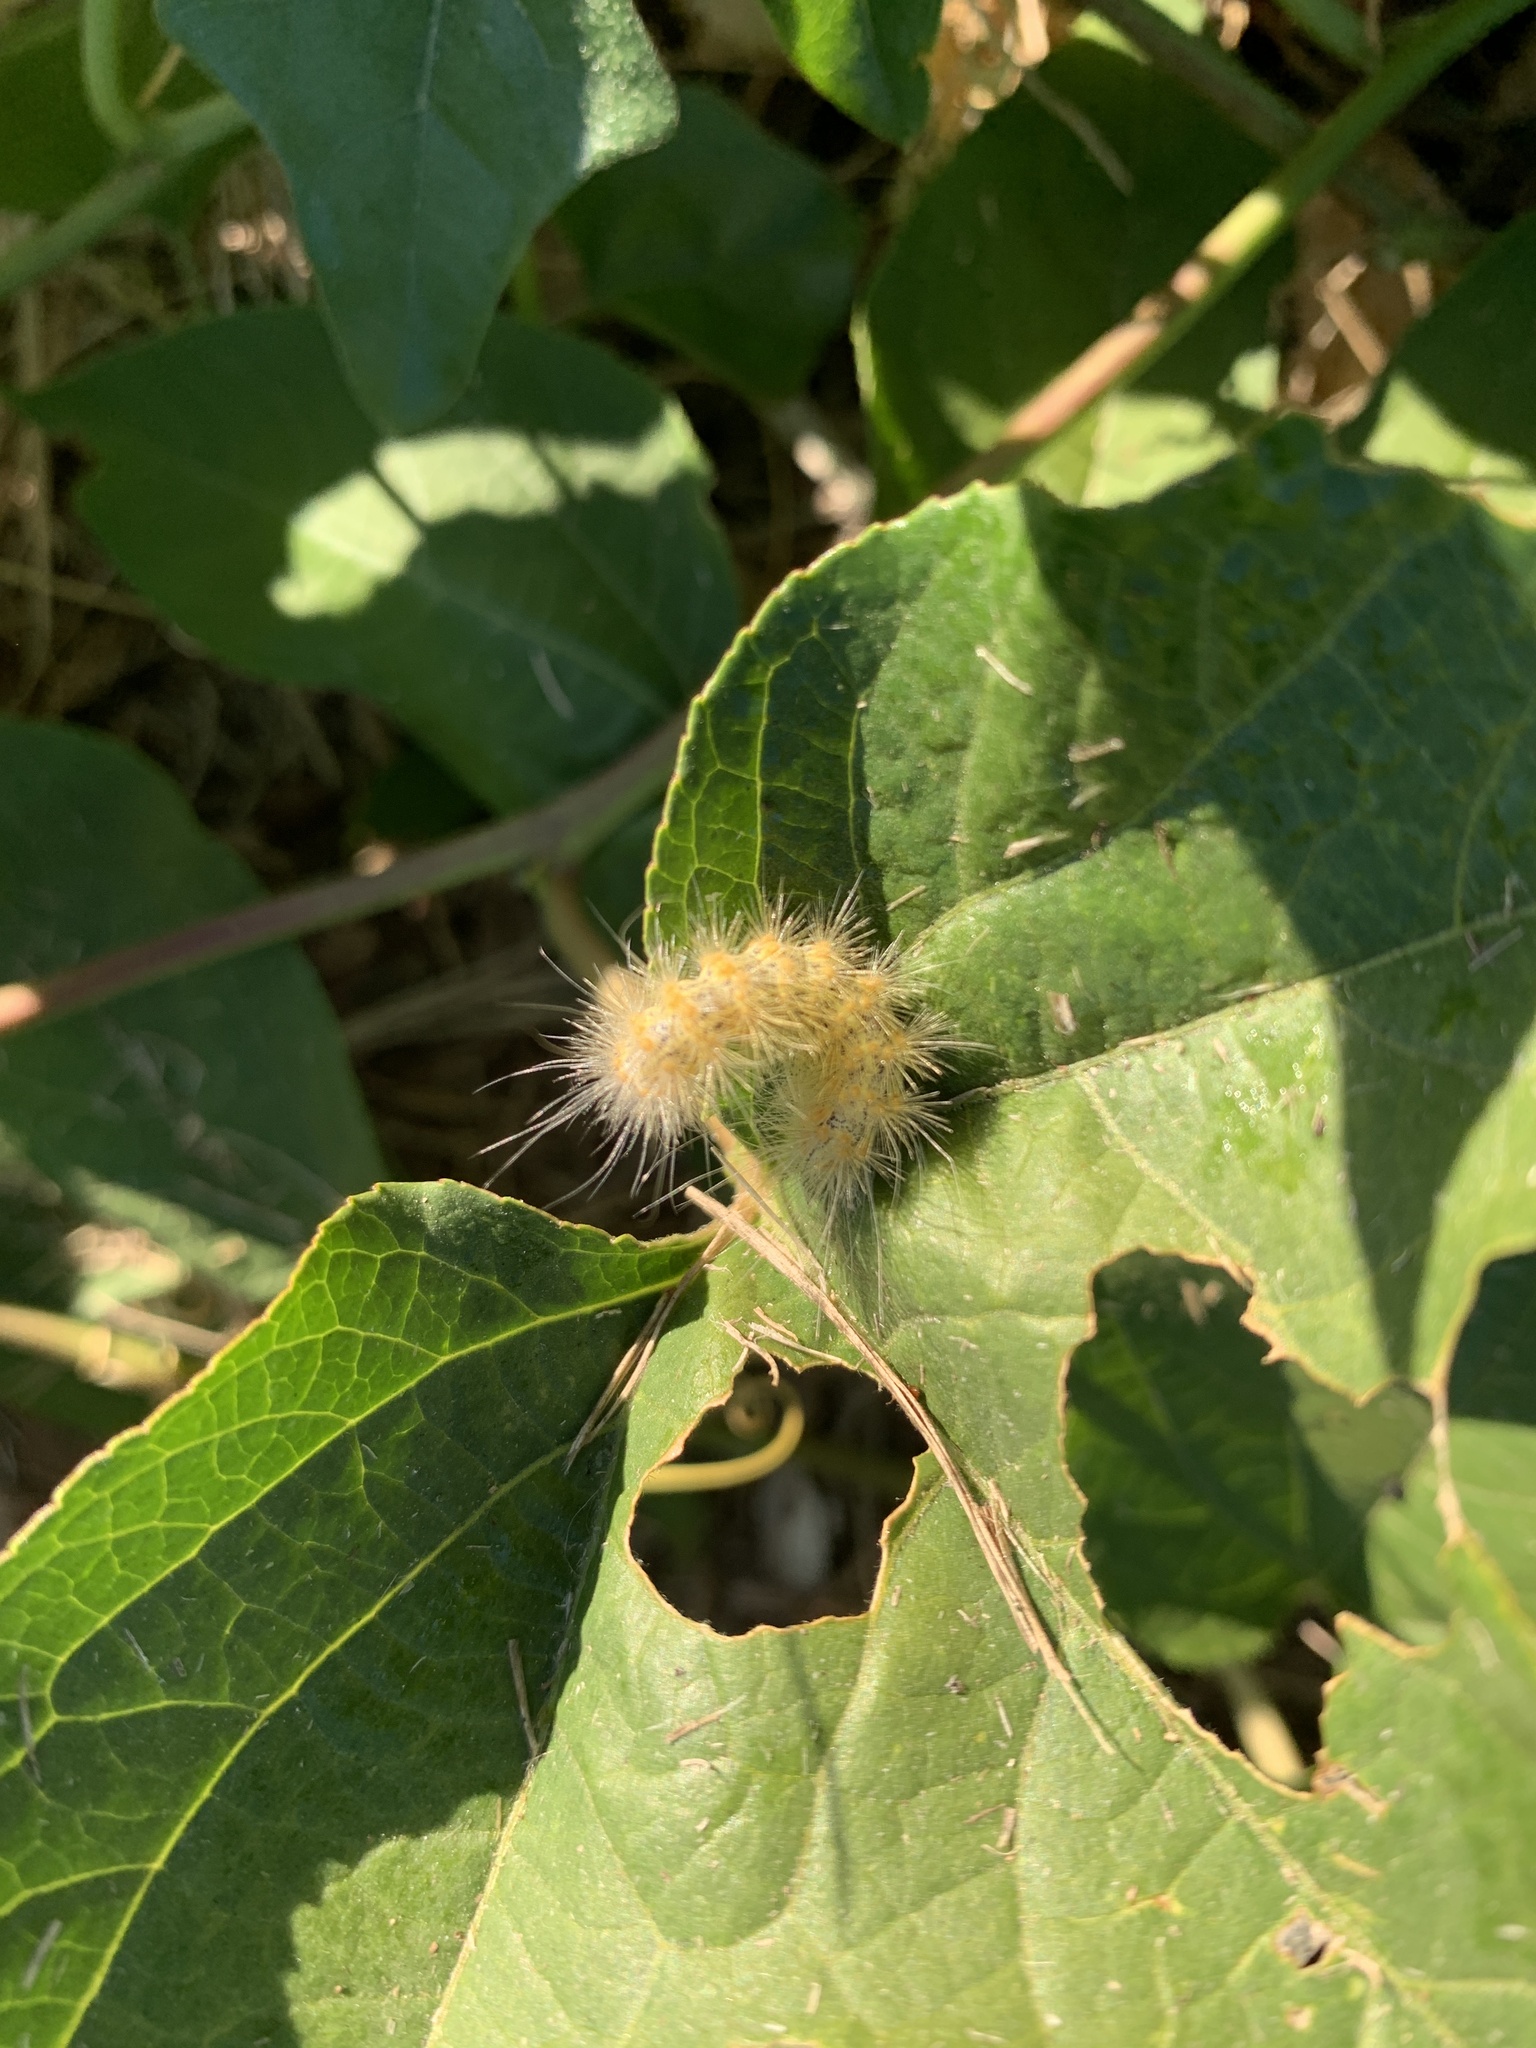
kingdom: Animalia
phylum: Arthropoda
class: Insecta
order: Lepidoptera
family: Erebidae
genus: Spilosoma
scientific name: Spilosoma virginica
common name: Virginia tiger moth
